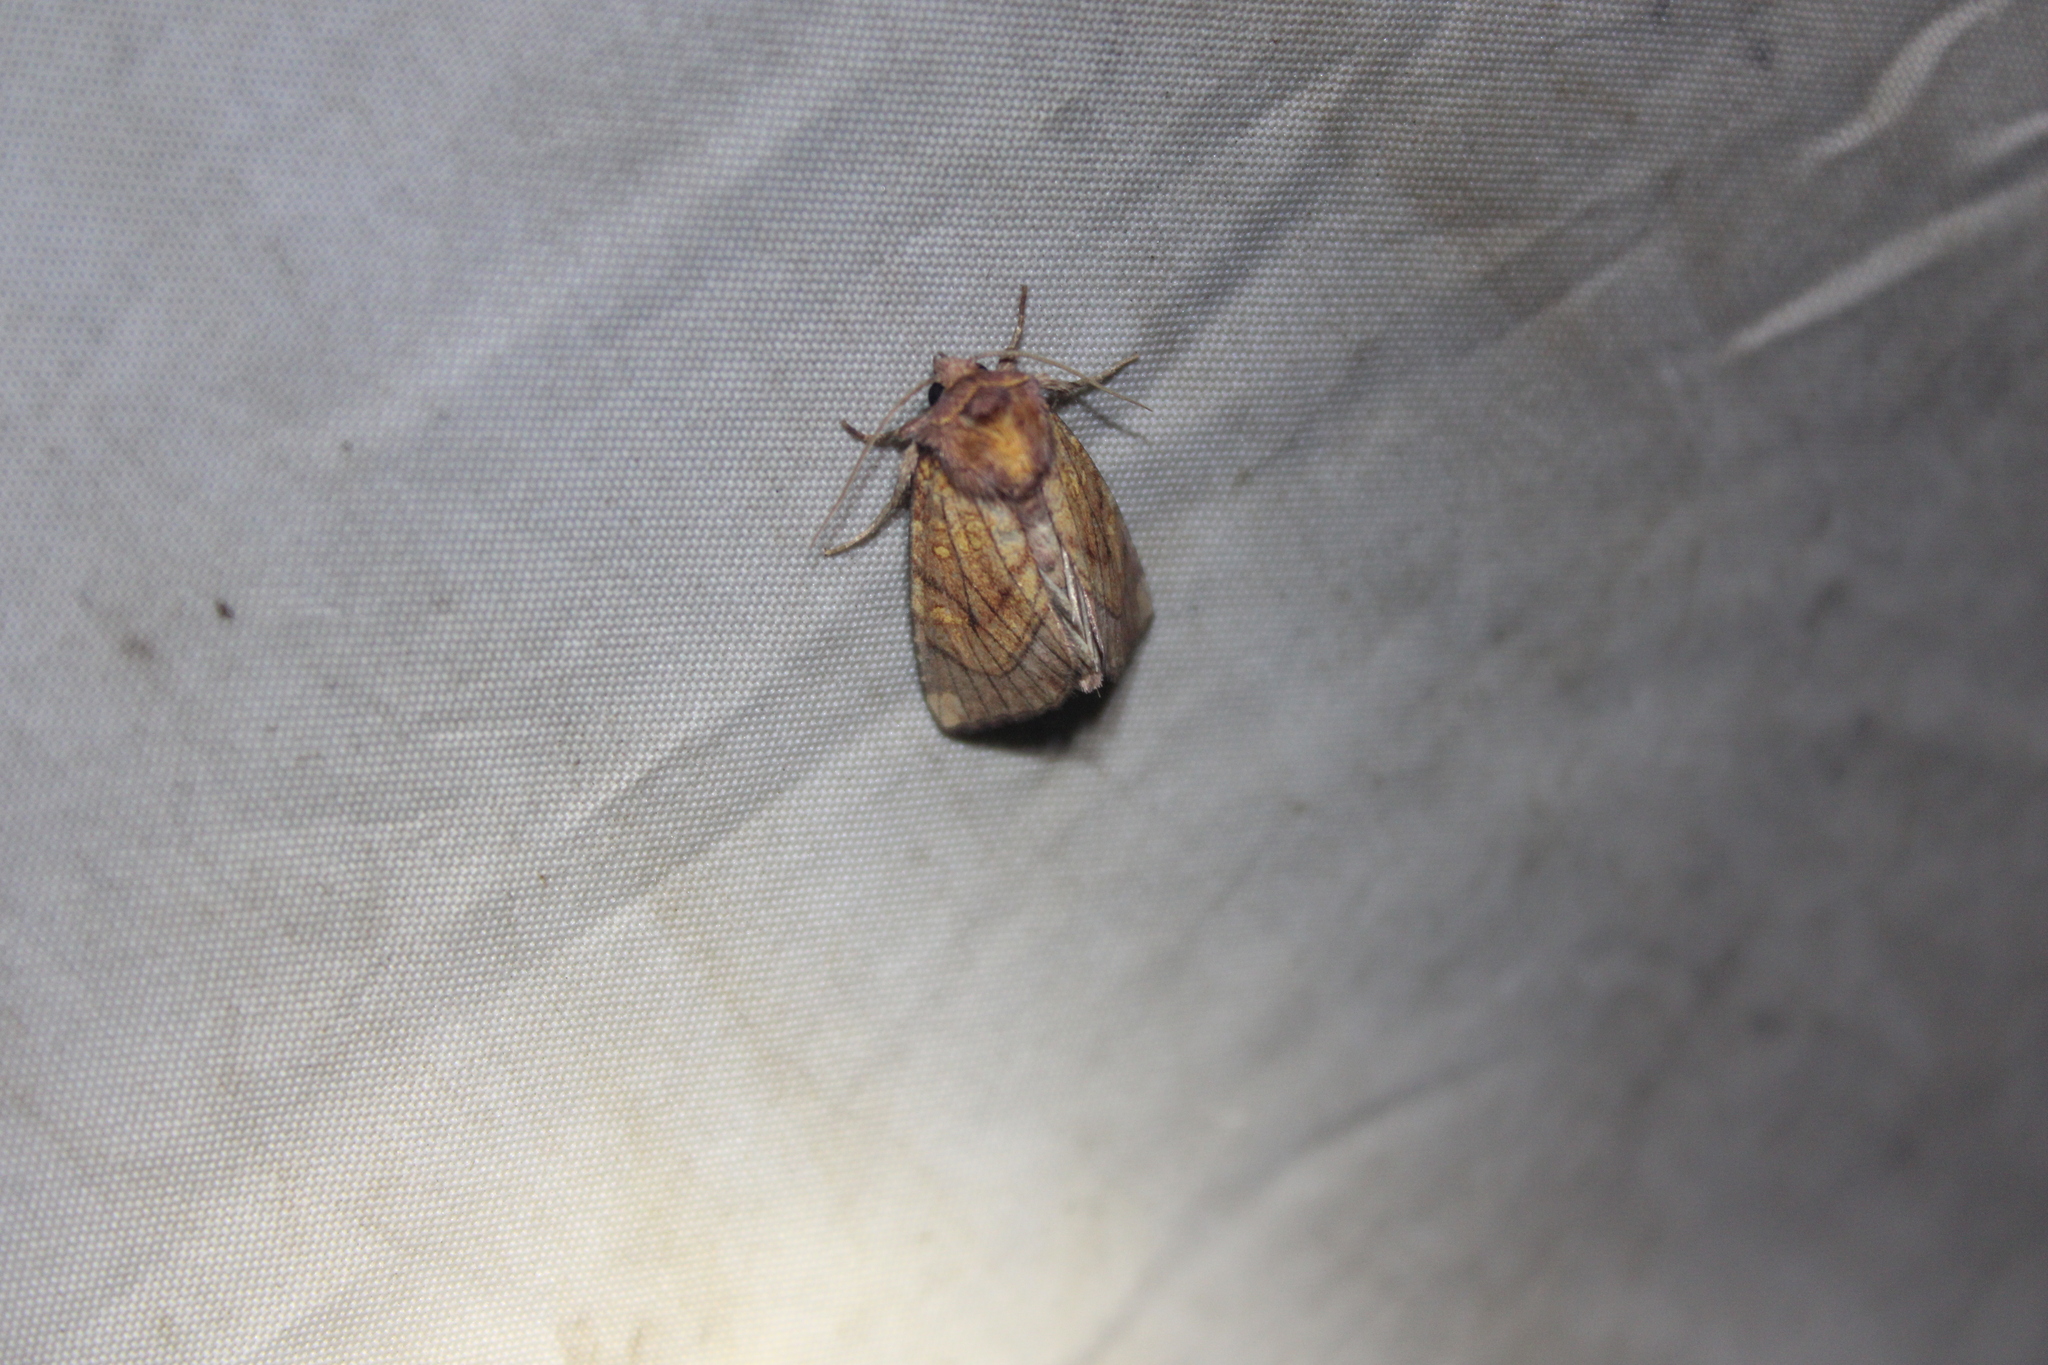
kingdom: Animalia
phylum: Arthropoda
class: Insecta
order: Lepidoptera
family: Noctuidae
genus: Papaipema
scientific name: Papaipema inquaesita
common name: Sensitive fern borer moth
